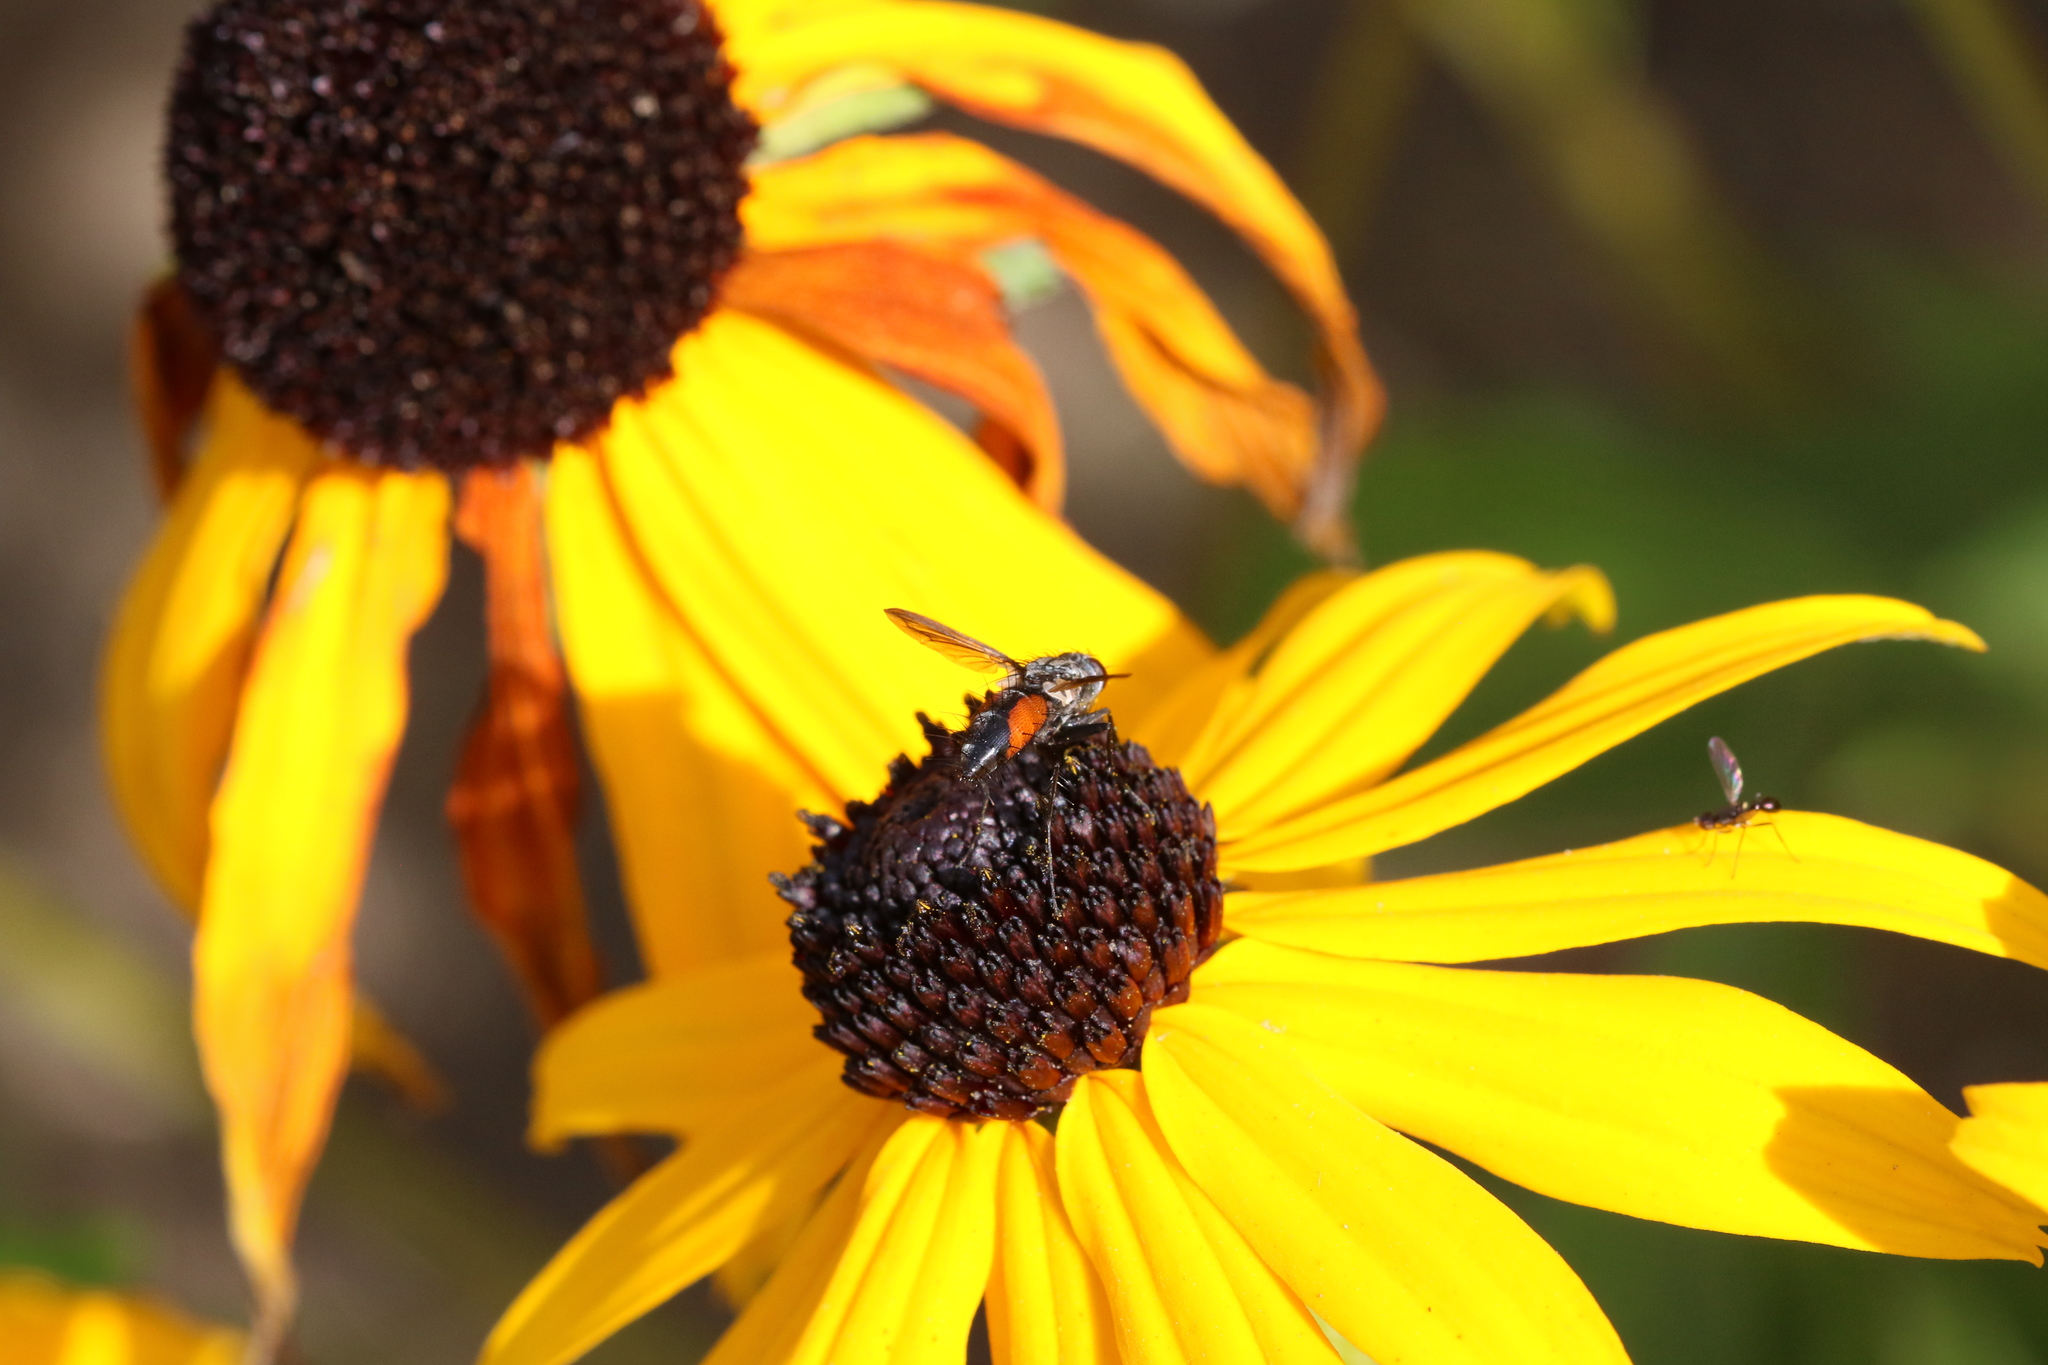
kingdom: Animalia
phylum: Arthropoda
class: Insecta
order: Diptera
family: Tachinidae
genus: Eriothrix
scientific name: Eriothrix rufomaculatus
